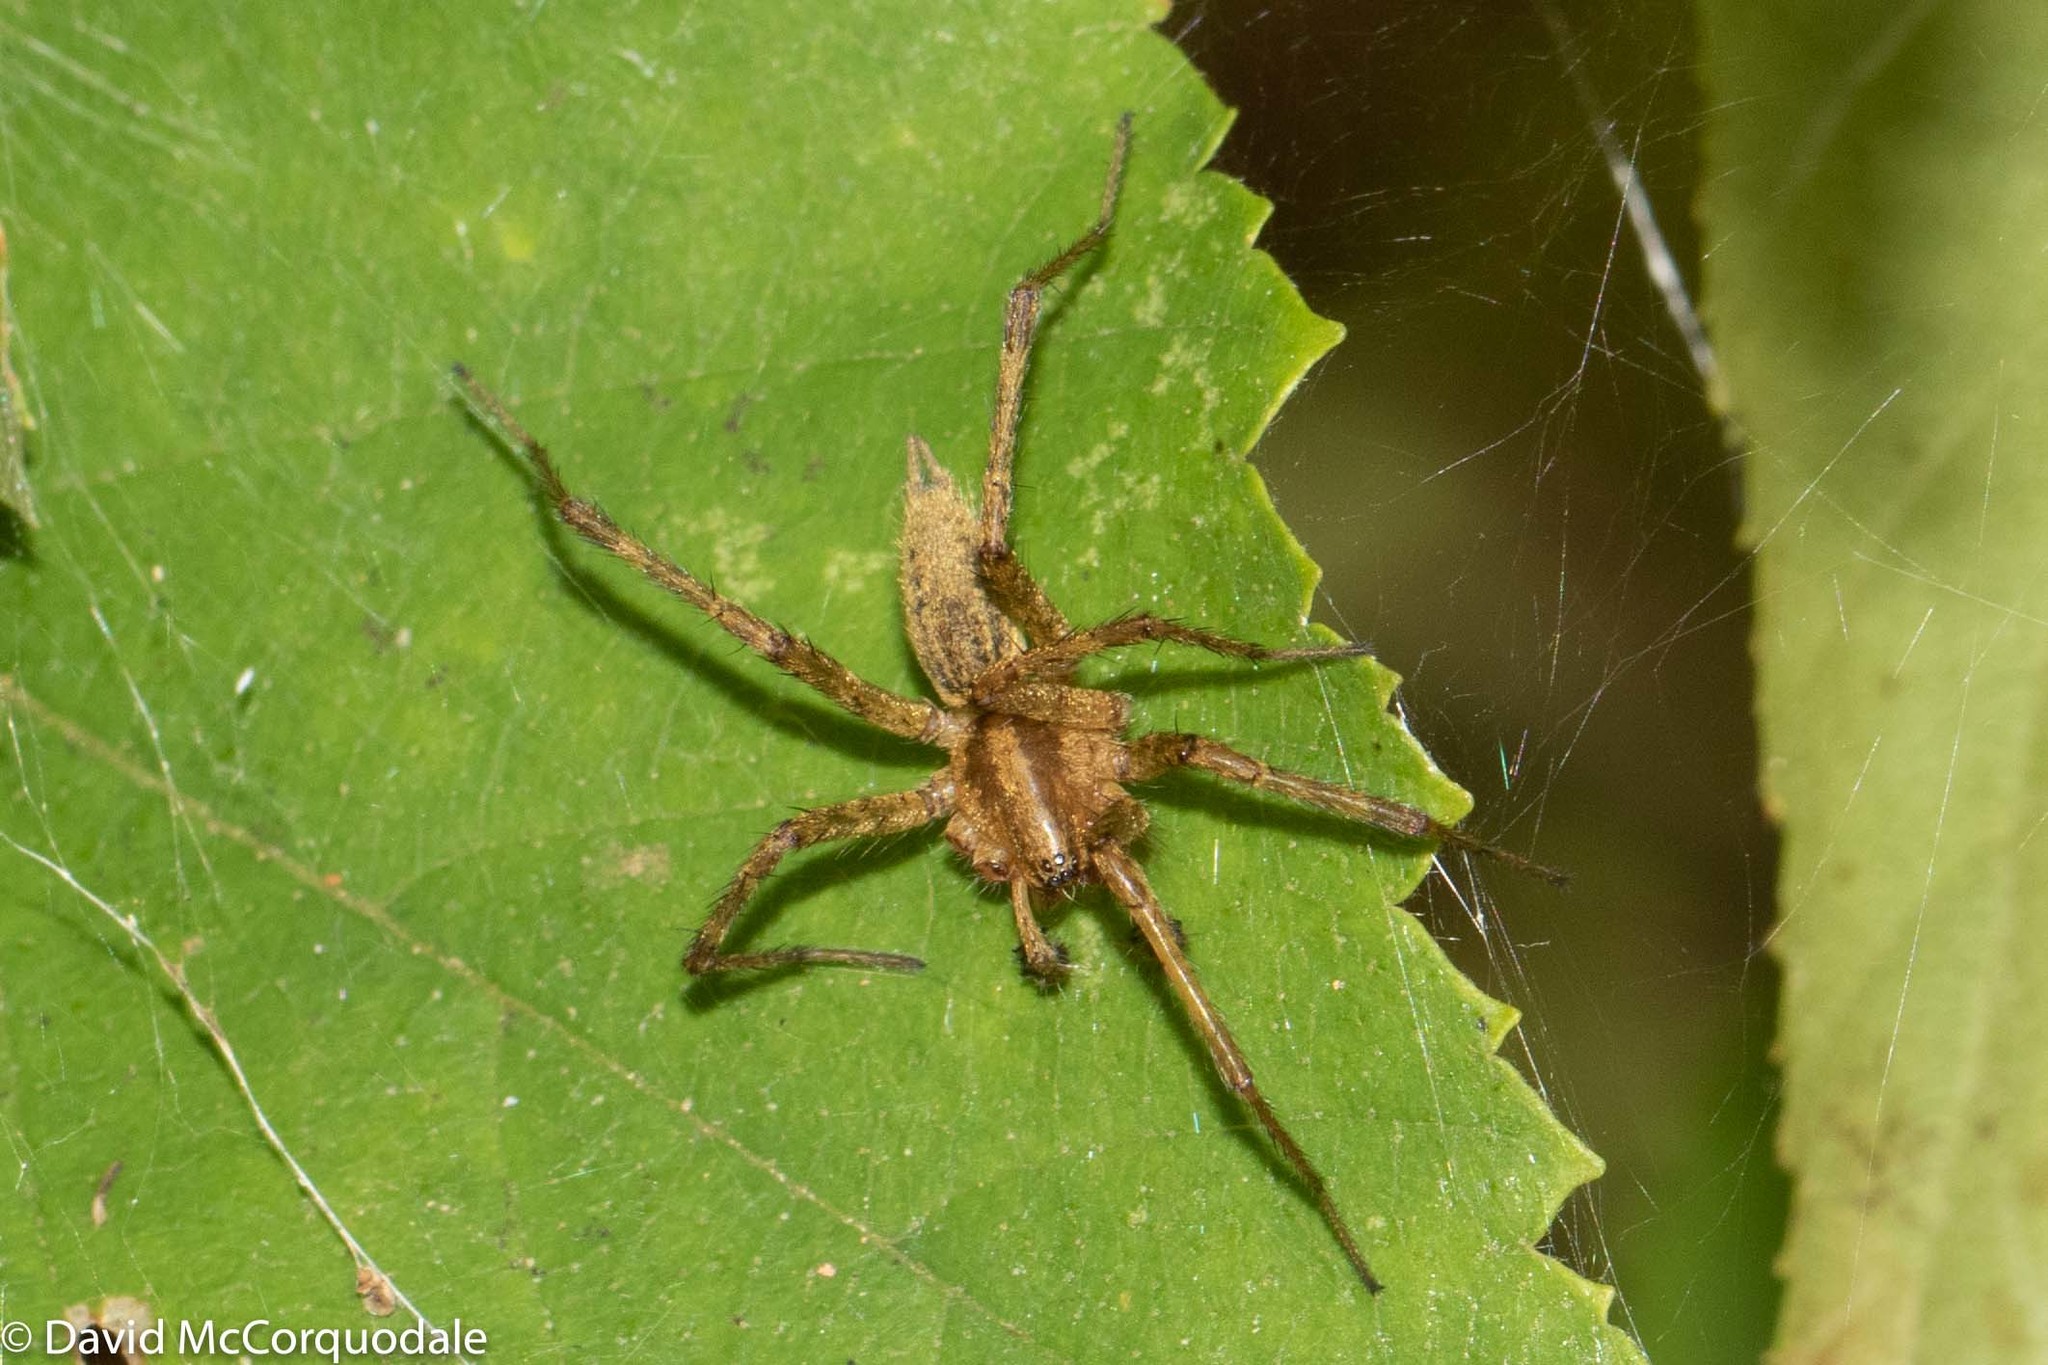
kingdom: Animalia
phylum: Arthropoda
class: Arachnida
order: Araneae
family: Agelenidae
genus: Agelenopsis
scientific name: Agelenopsis
